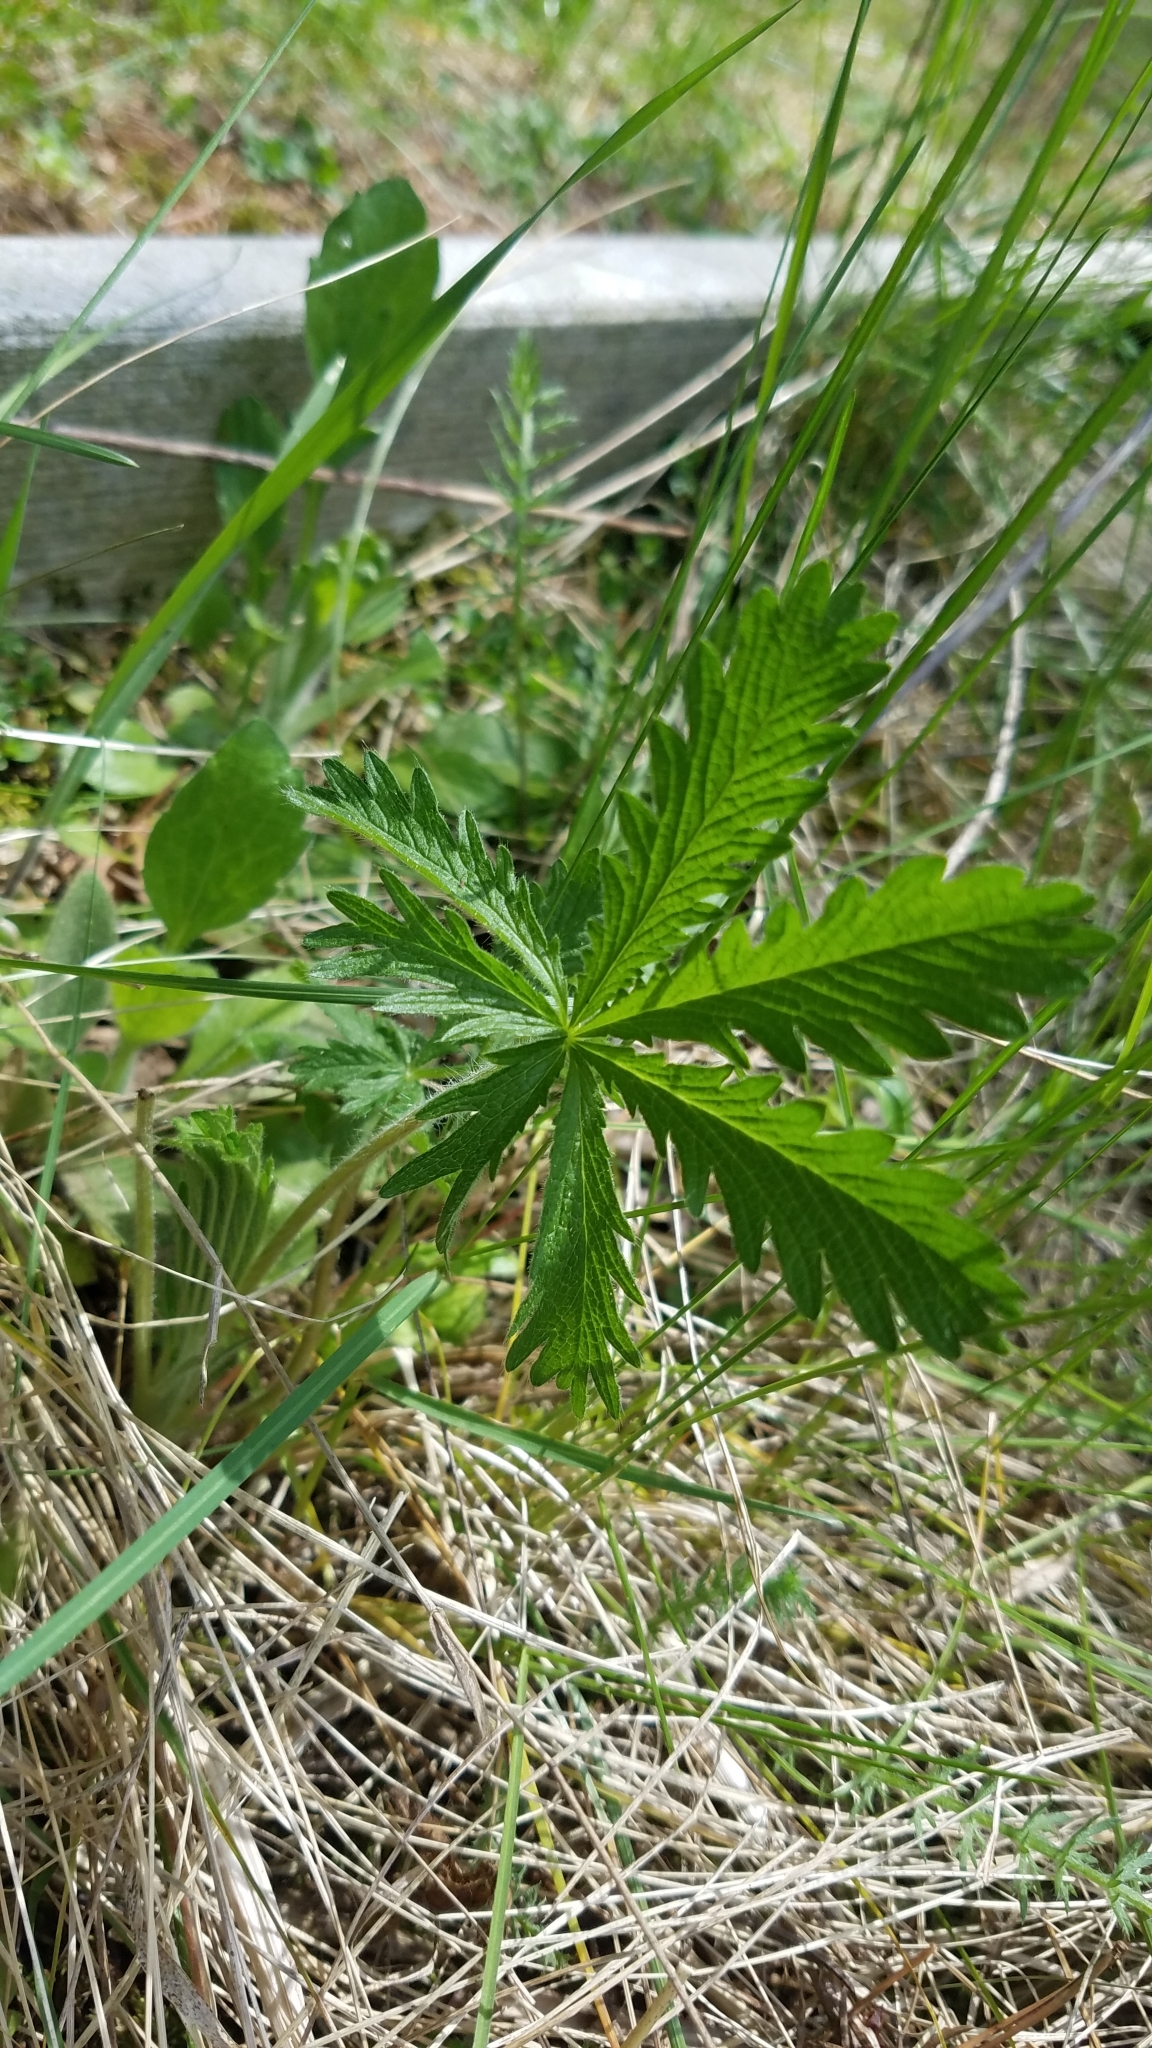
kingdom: Plantae
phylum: Tracheophyta
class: Magnoliopsida
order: Rosales
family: Rosaceae
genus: Potentilla
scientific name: Potentilla recta
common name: Sulphur cinquefoil
